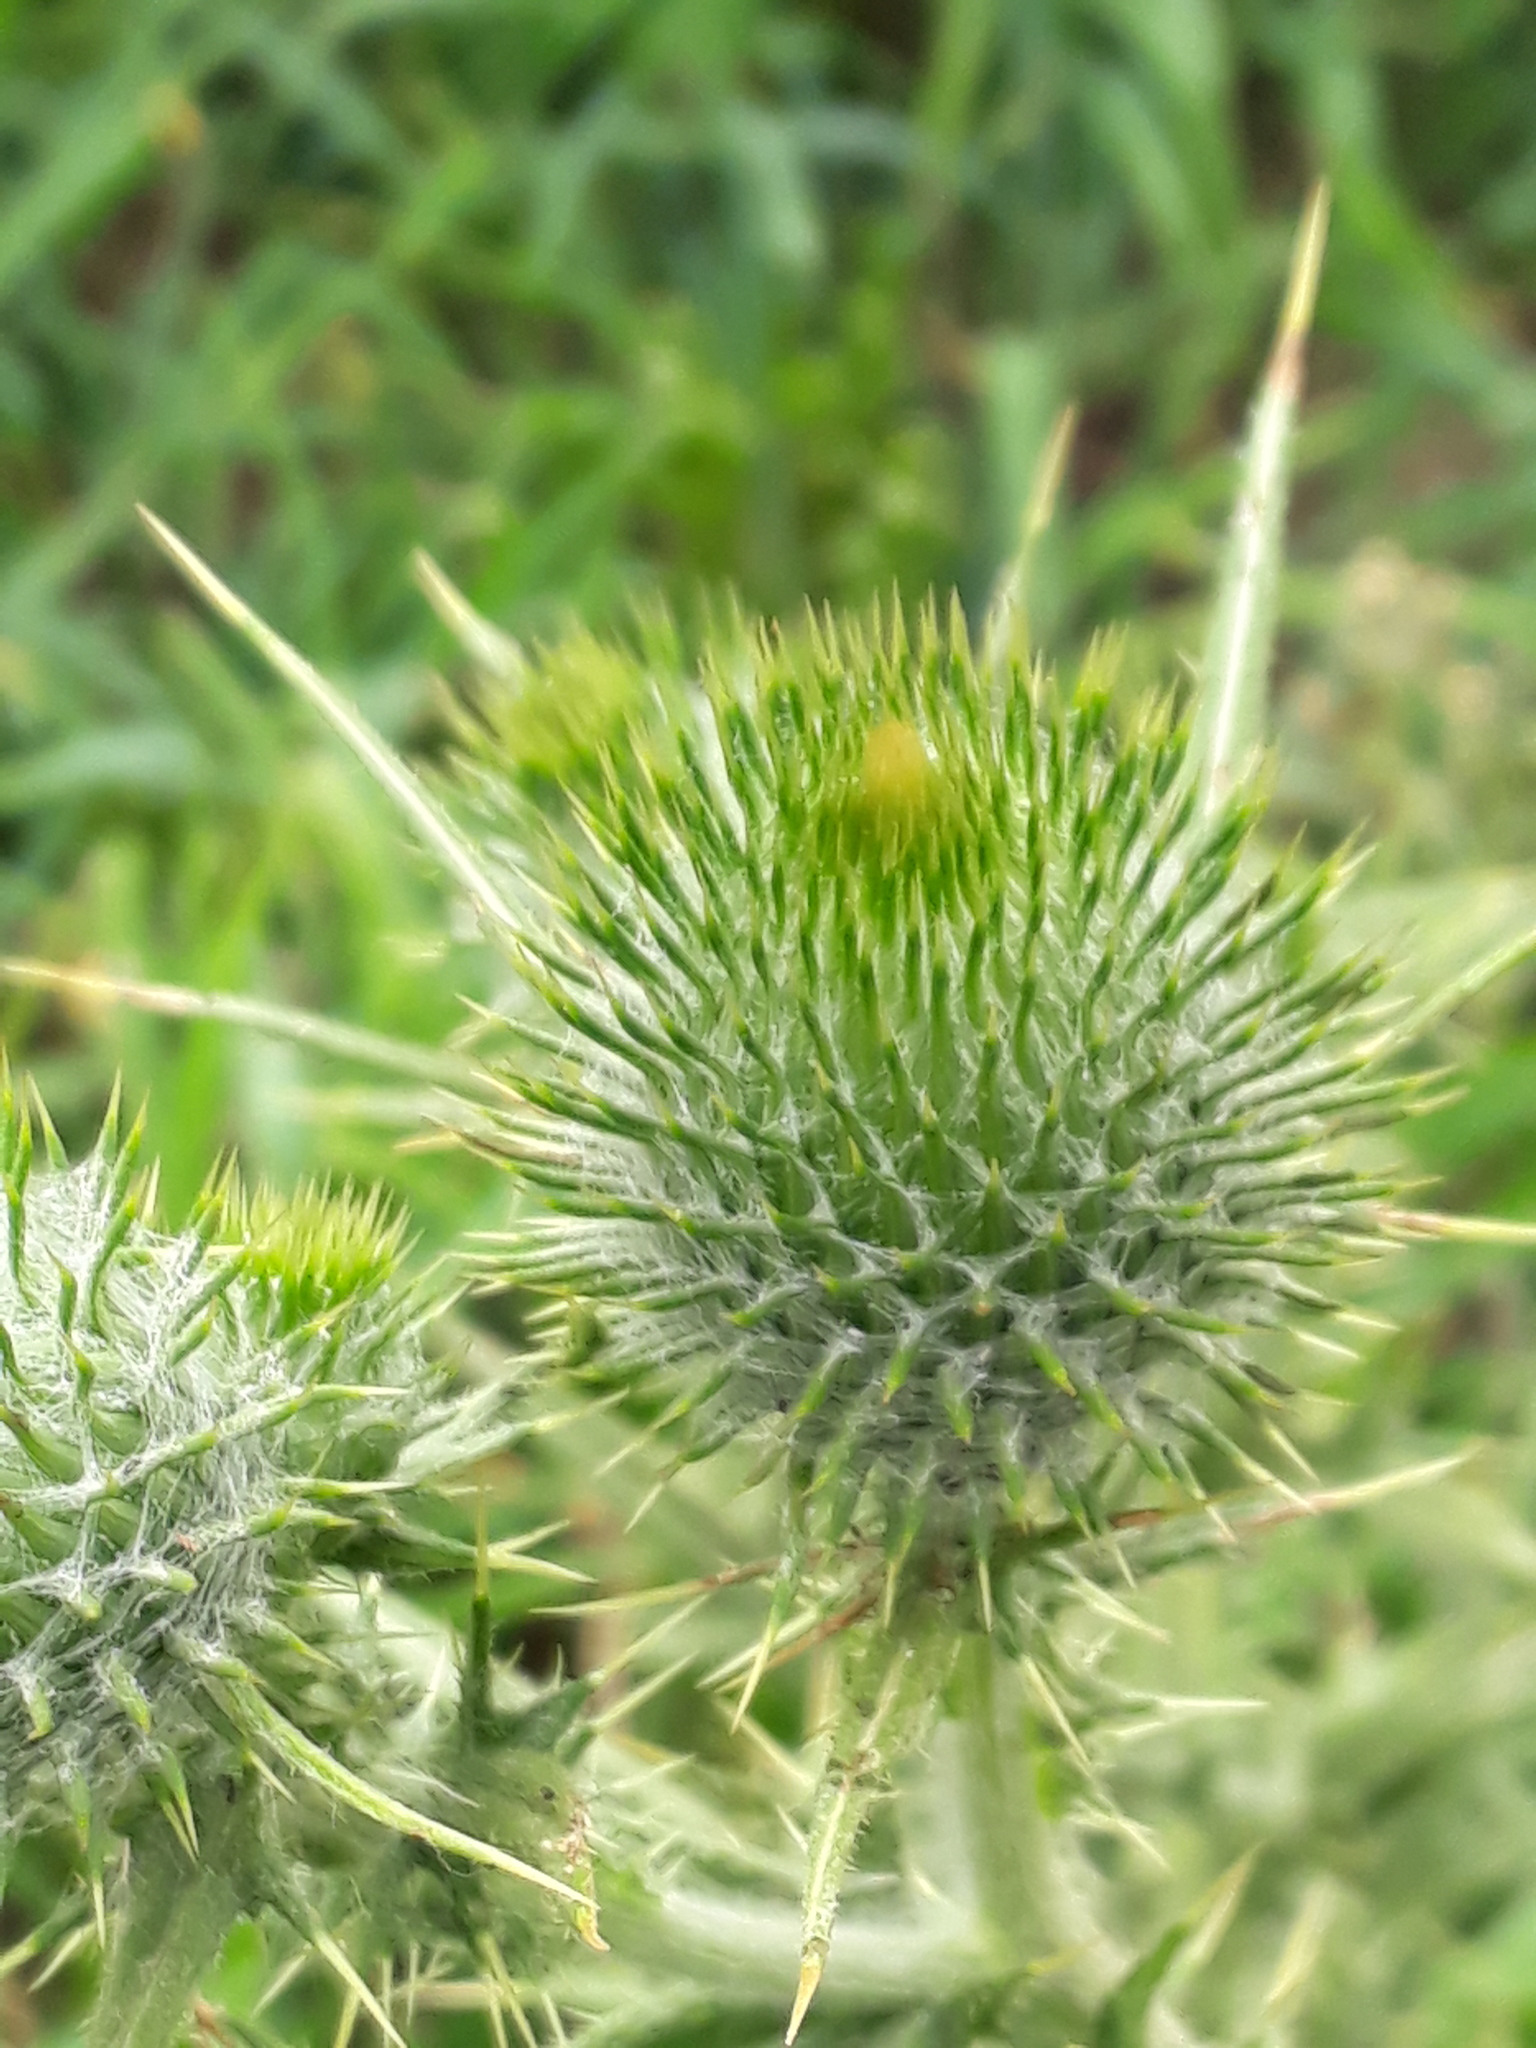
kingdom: Plantae
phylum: Tracheophyta
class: Magnoliopsida
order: Asterales
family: Asteraceae
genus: Cirsium
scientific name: Cirsium vulgare
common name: Bull thistle
